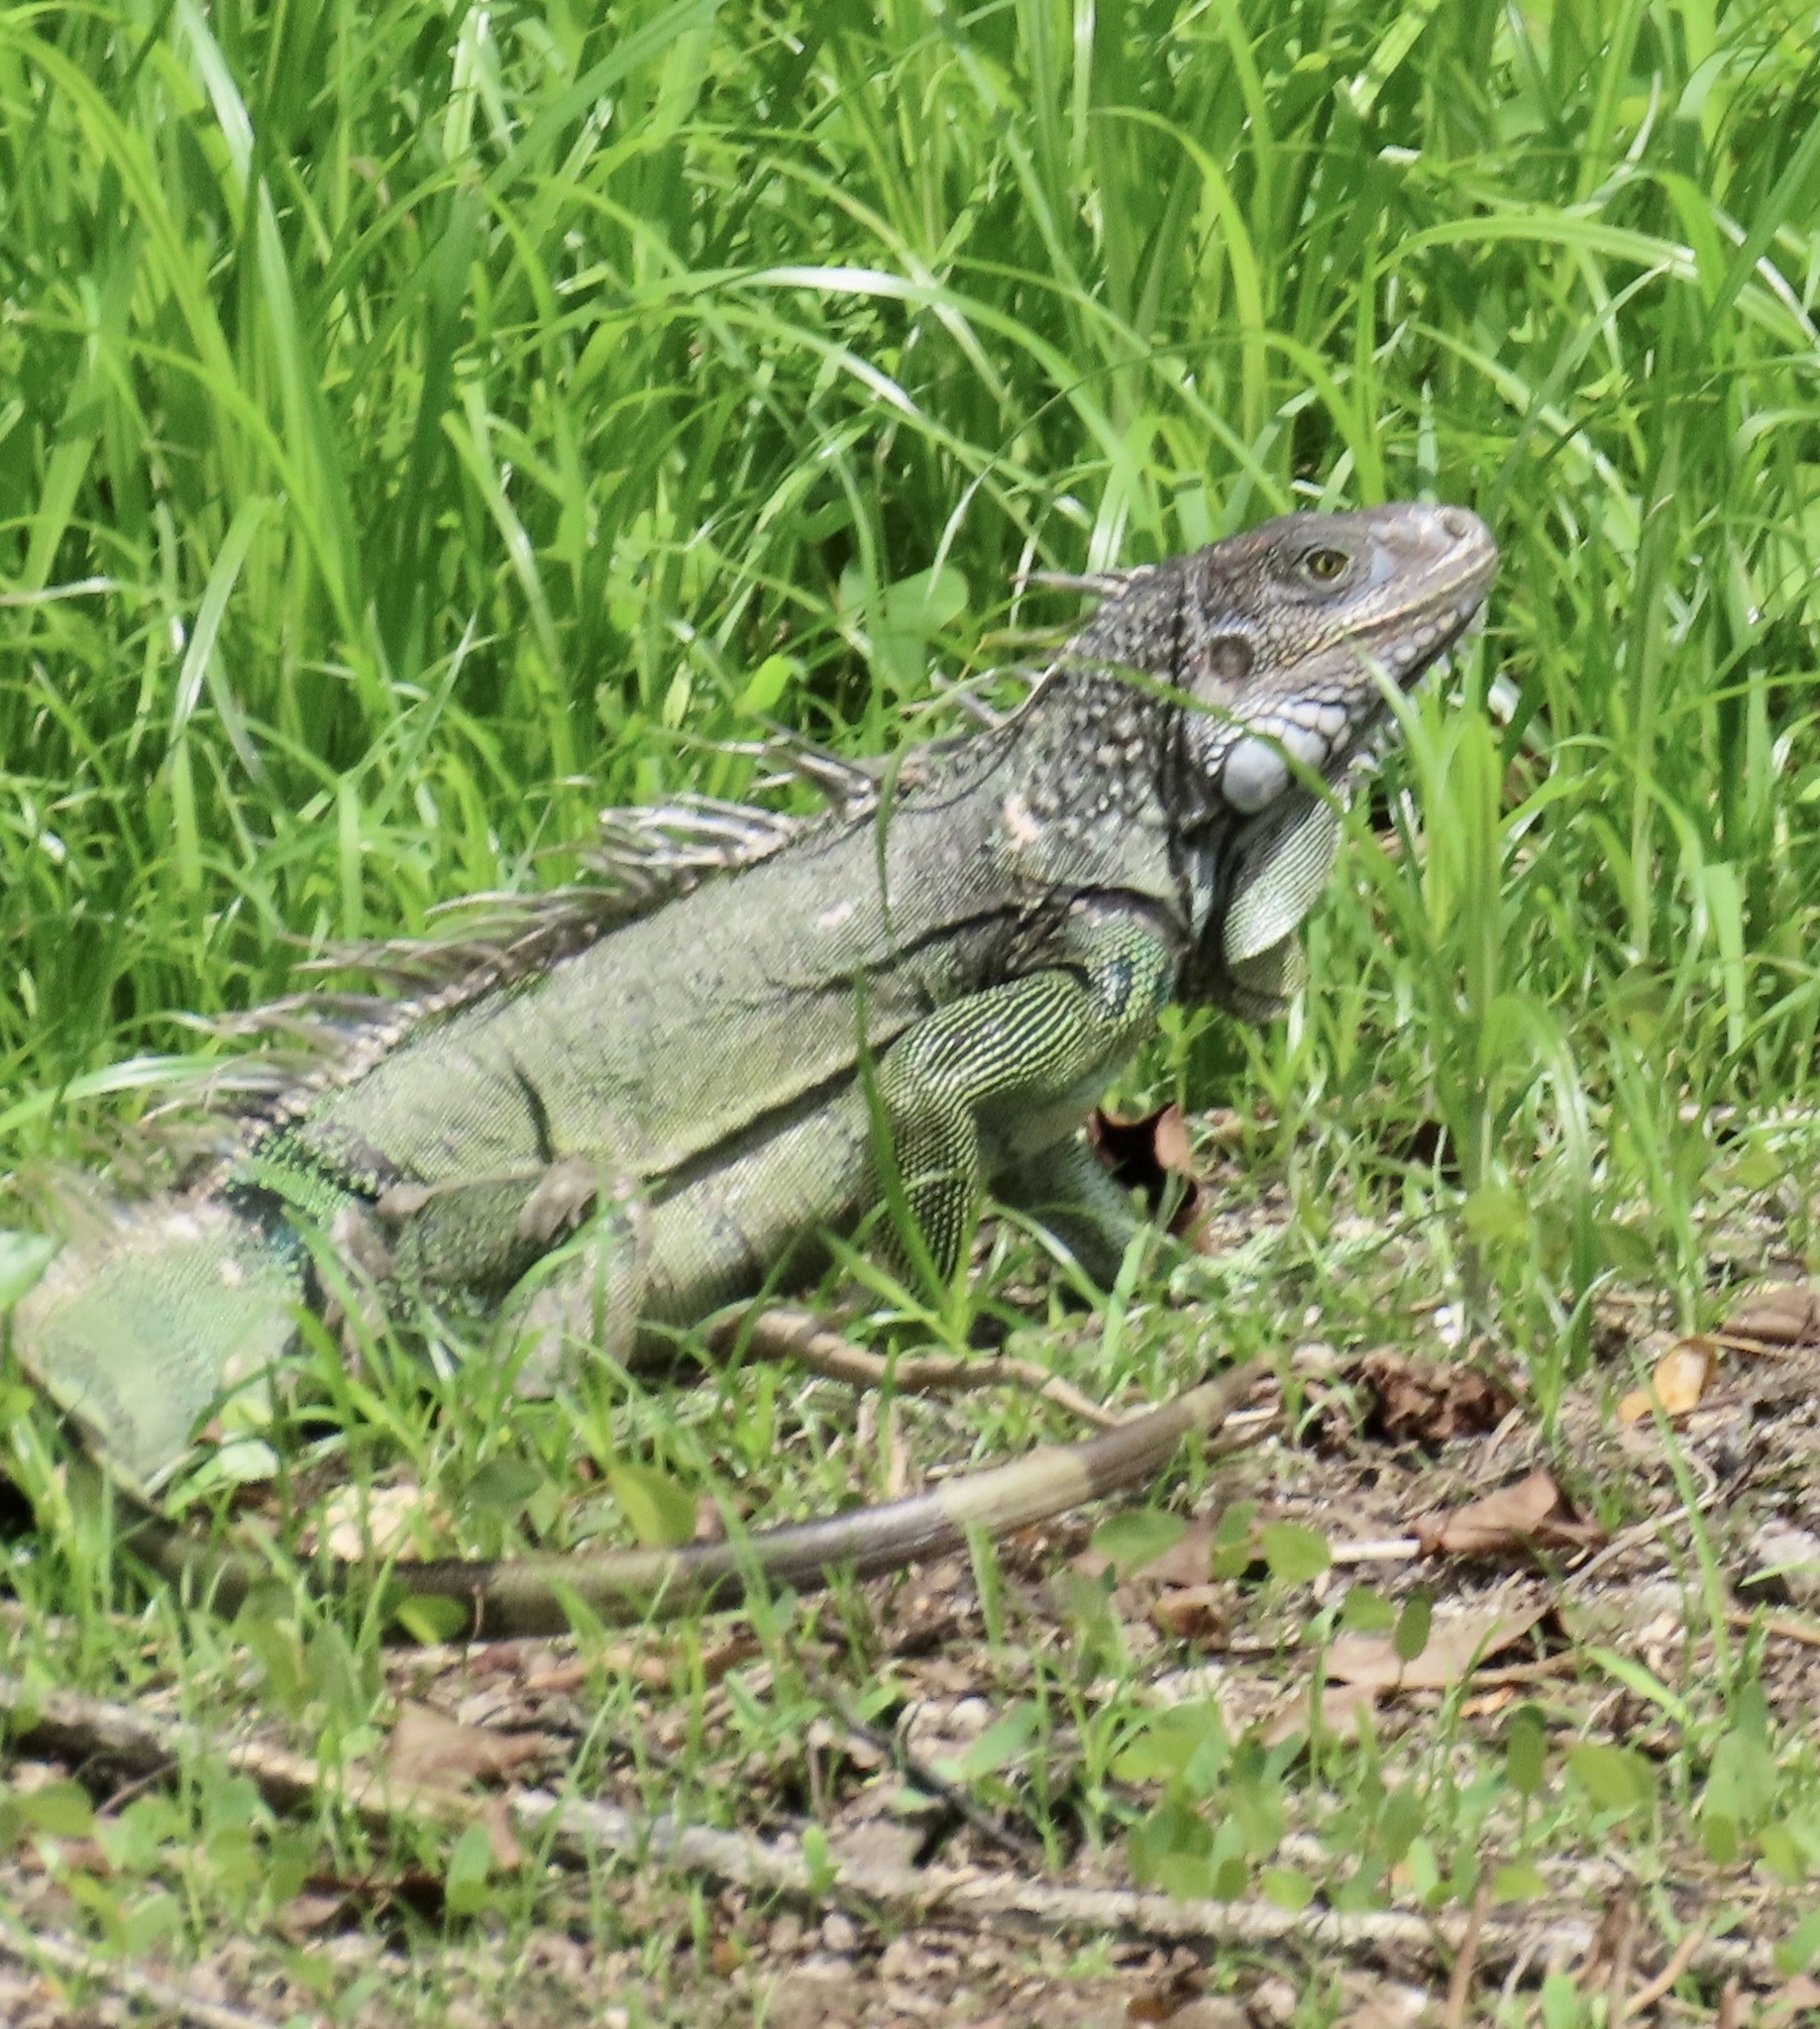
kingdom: Animalia
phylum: Chordata
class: Squamata
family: Iguanidae
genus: Iguana
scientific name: Iguana iguana
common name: Green iguana
